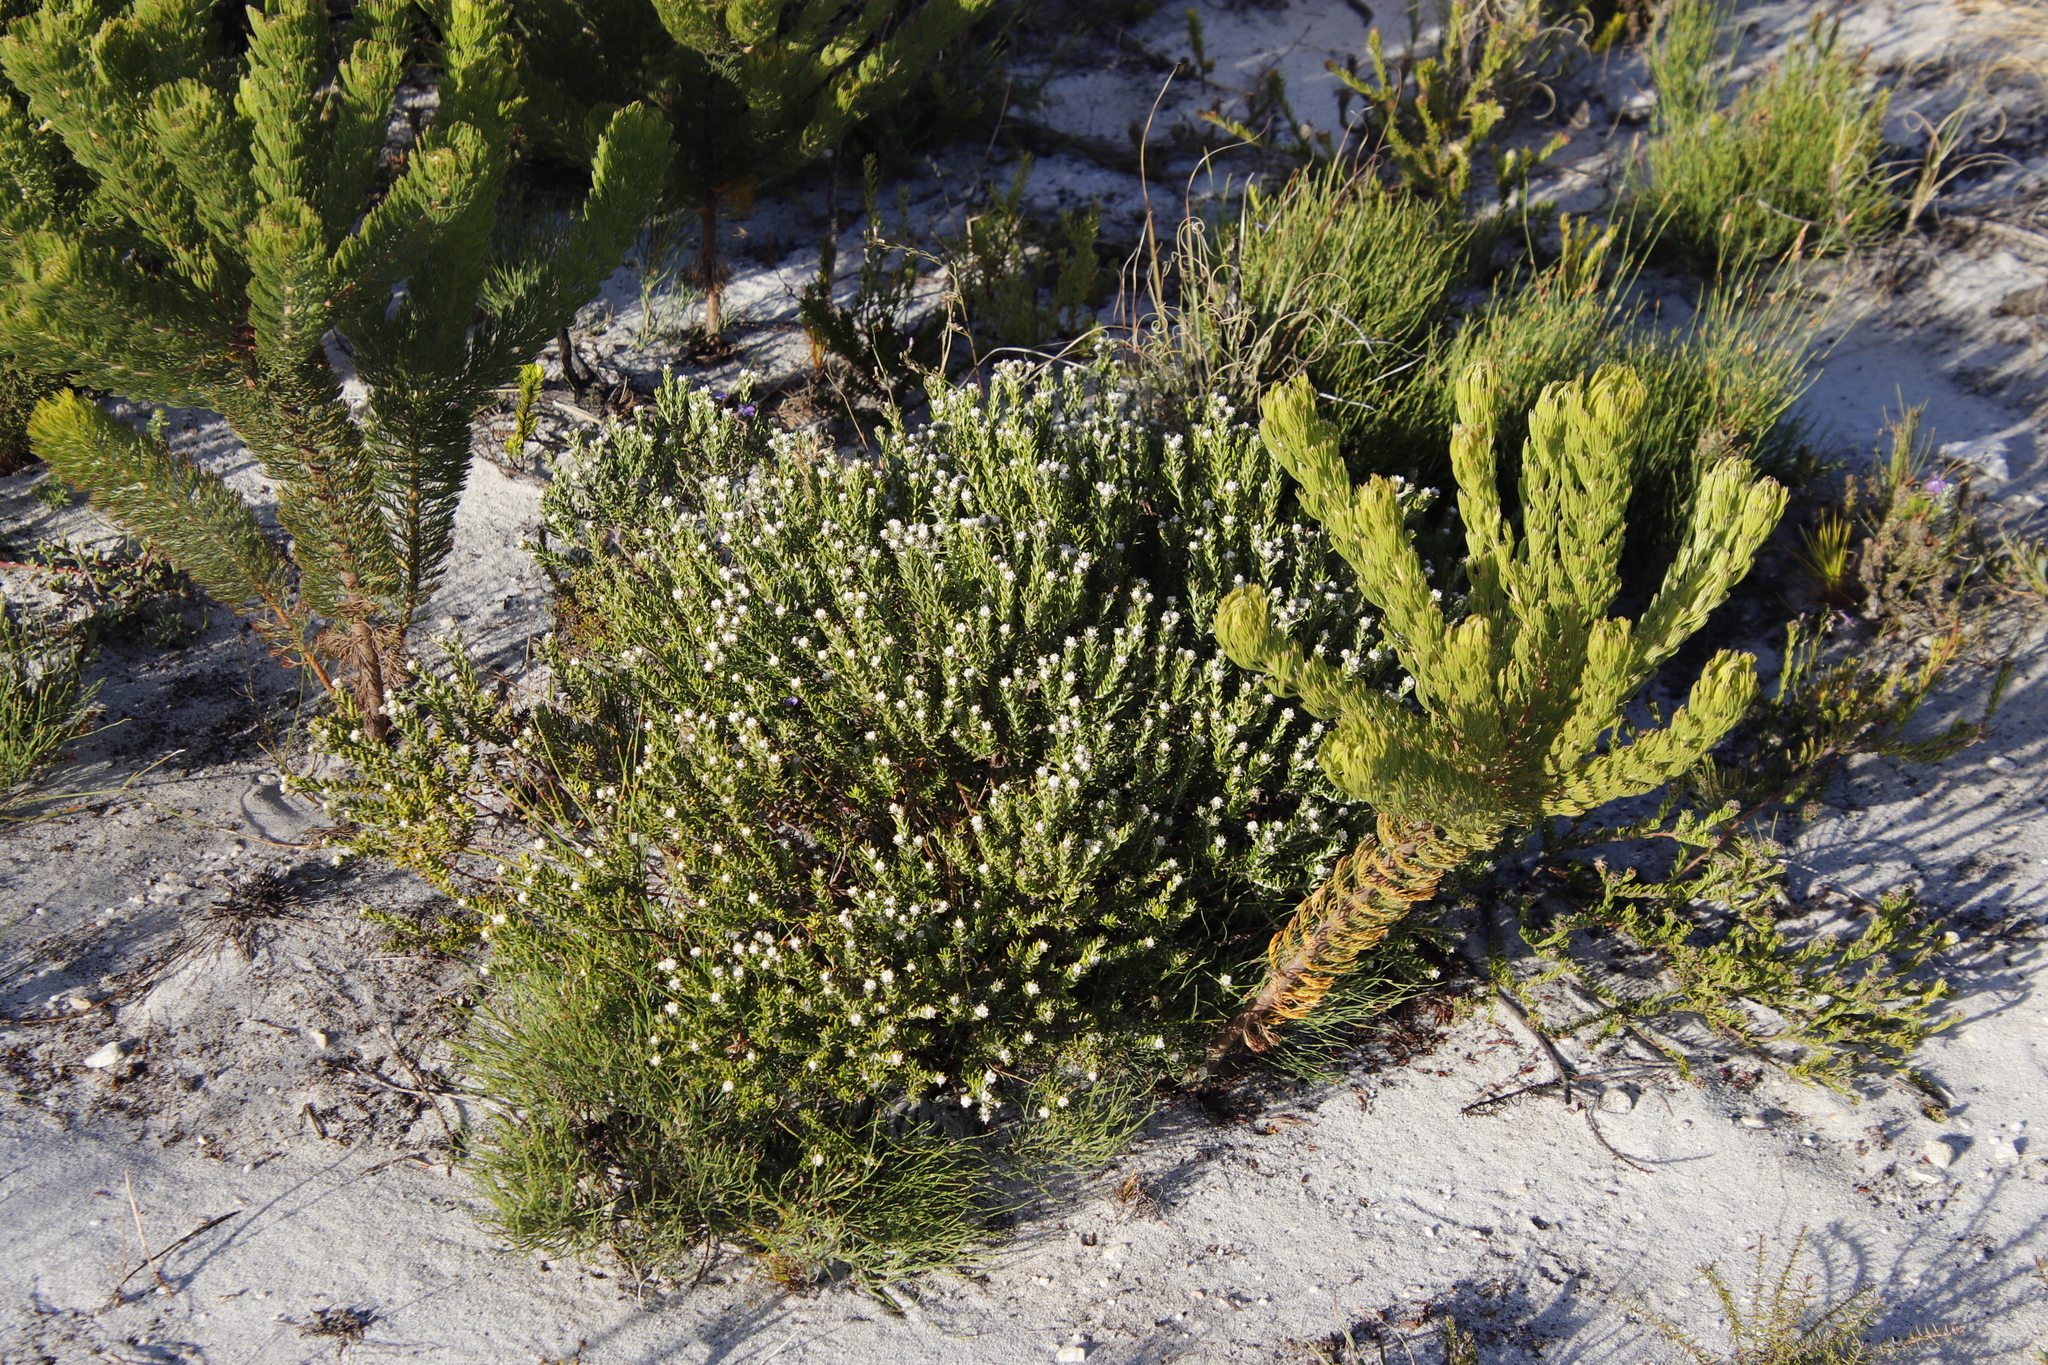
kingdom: Plantae
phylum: Tracheophyta
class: Magnoliopsida
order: Rosales
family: Rhamnaceae
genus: Phylica
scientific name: Phylica ericoides
